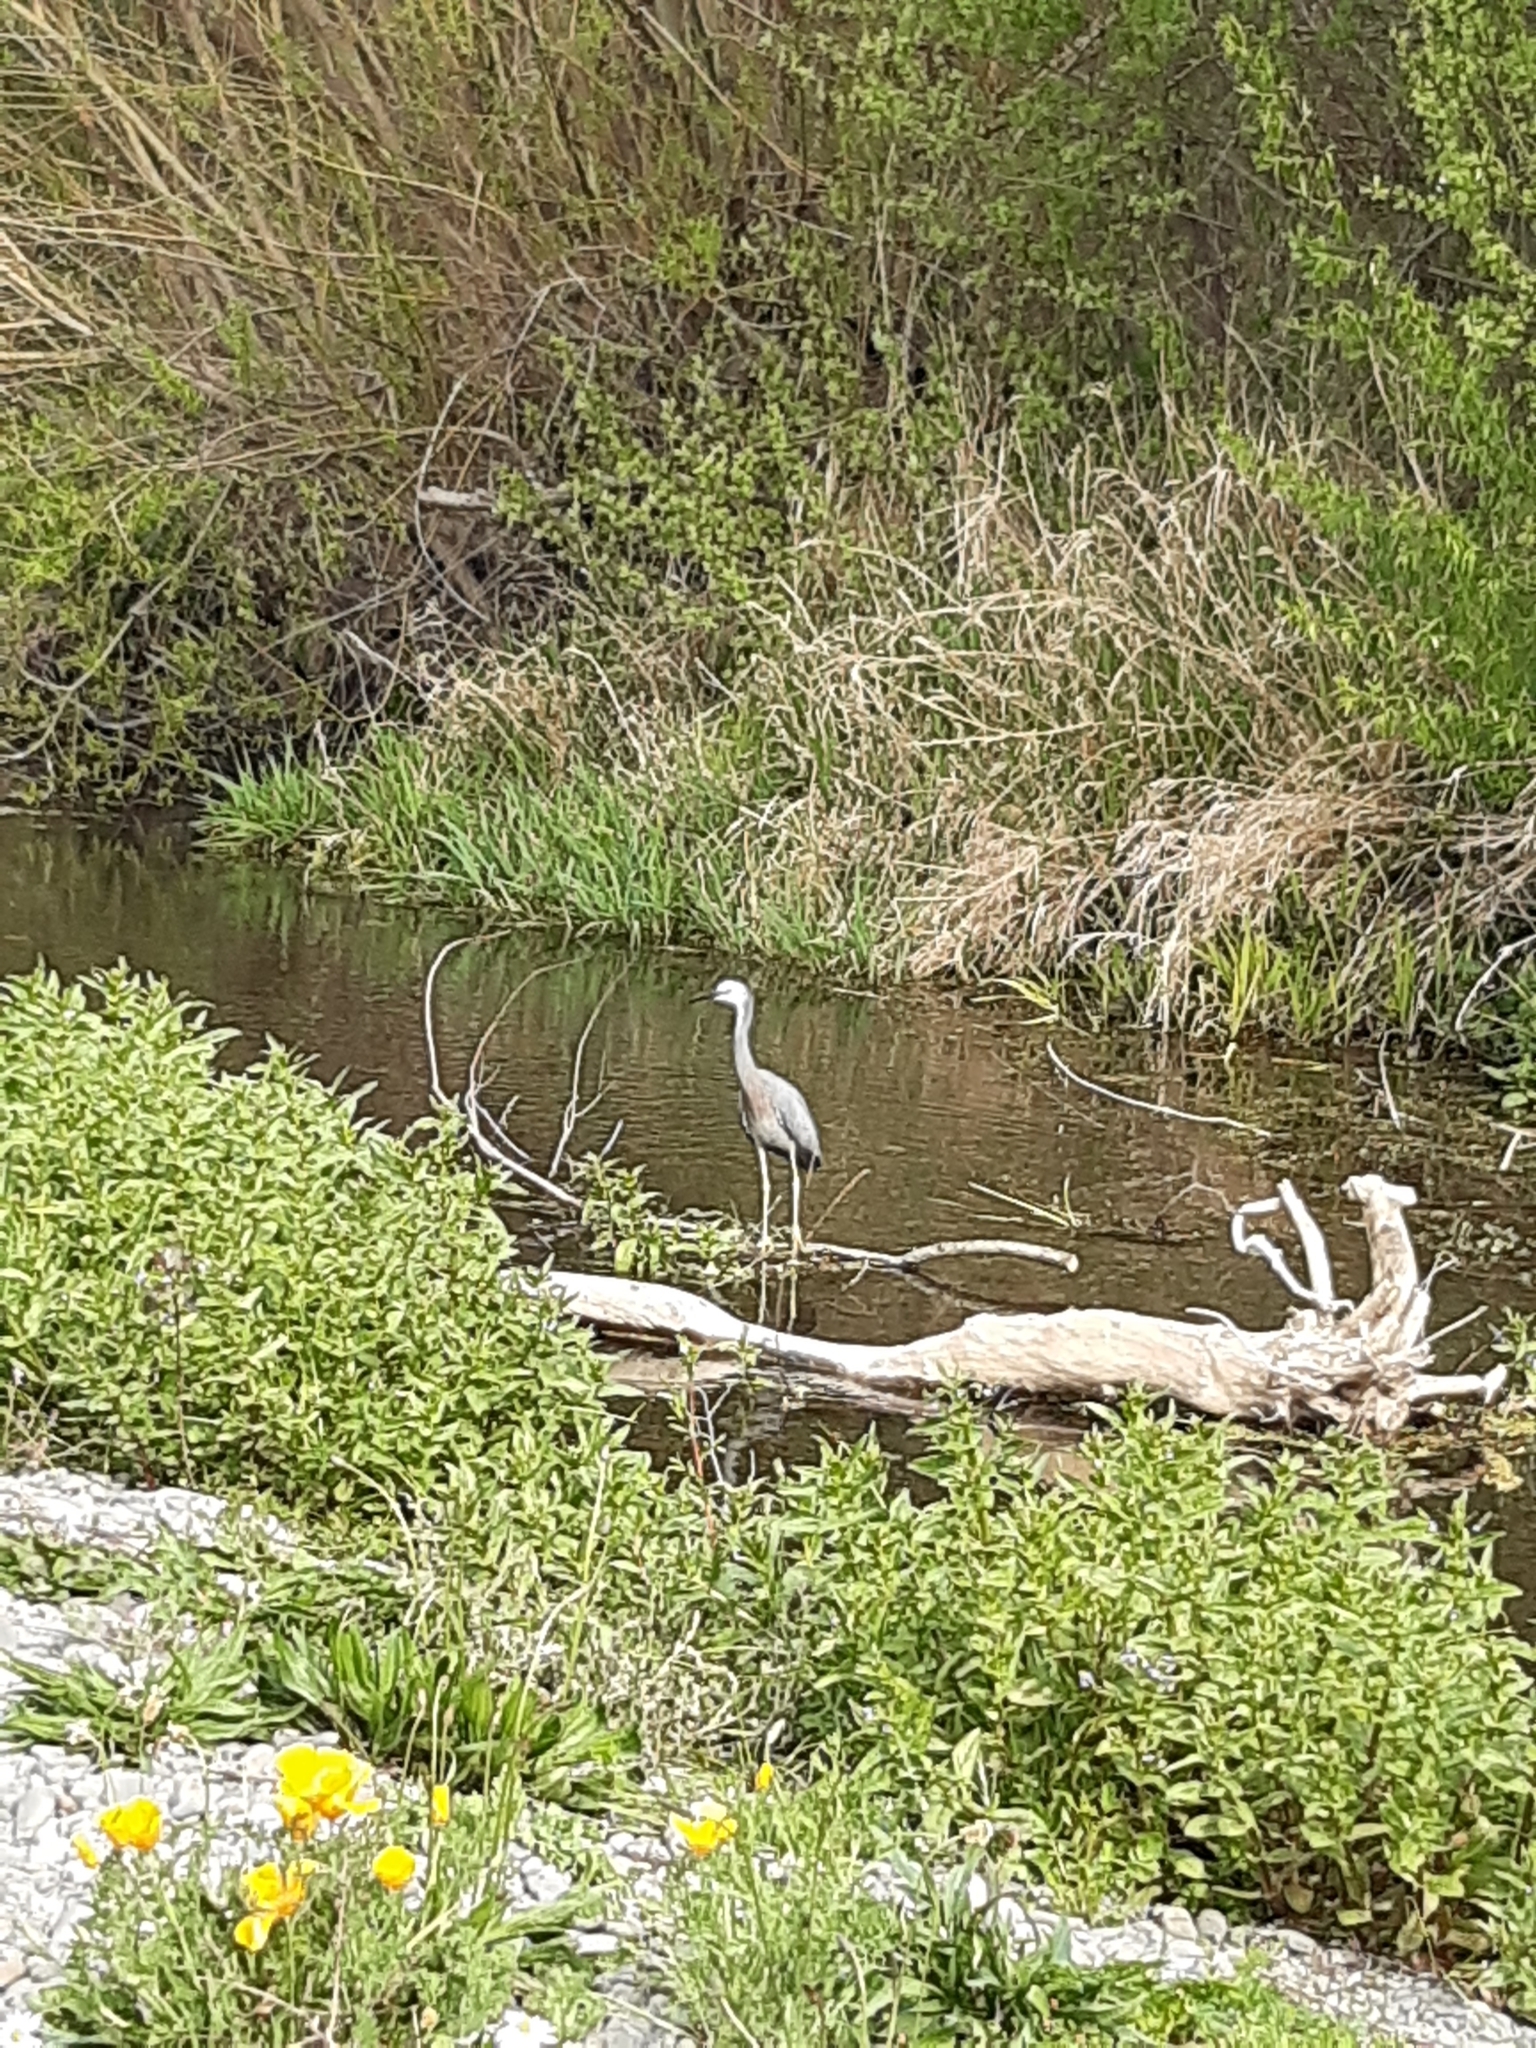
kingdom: Animalia
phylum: Chordata
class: Aves
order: Pelecaniformes
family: Ardeidae
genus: Egretta
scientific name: Egretta novaehollandiae
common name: White-faced heron
